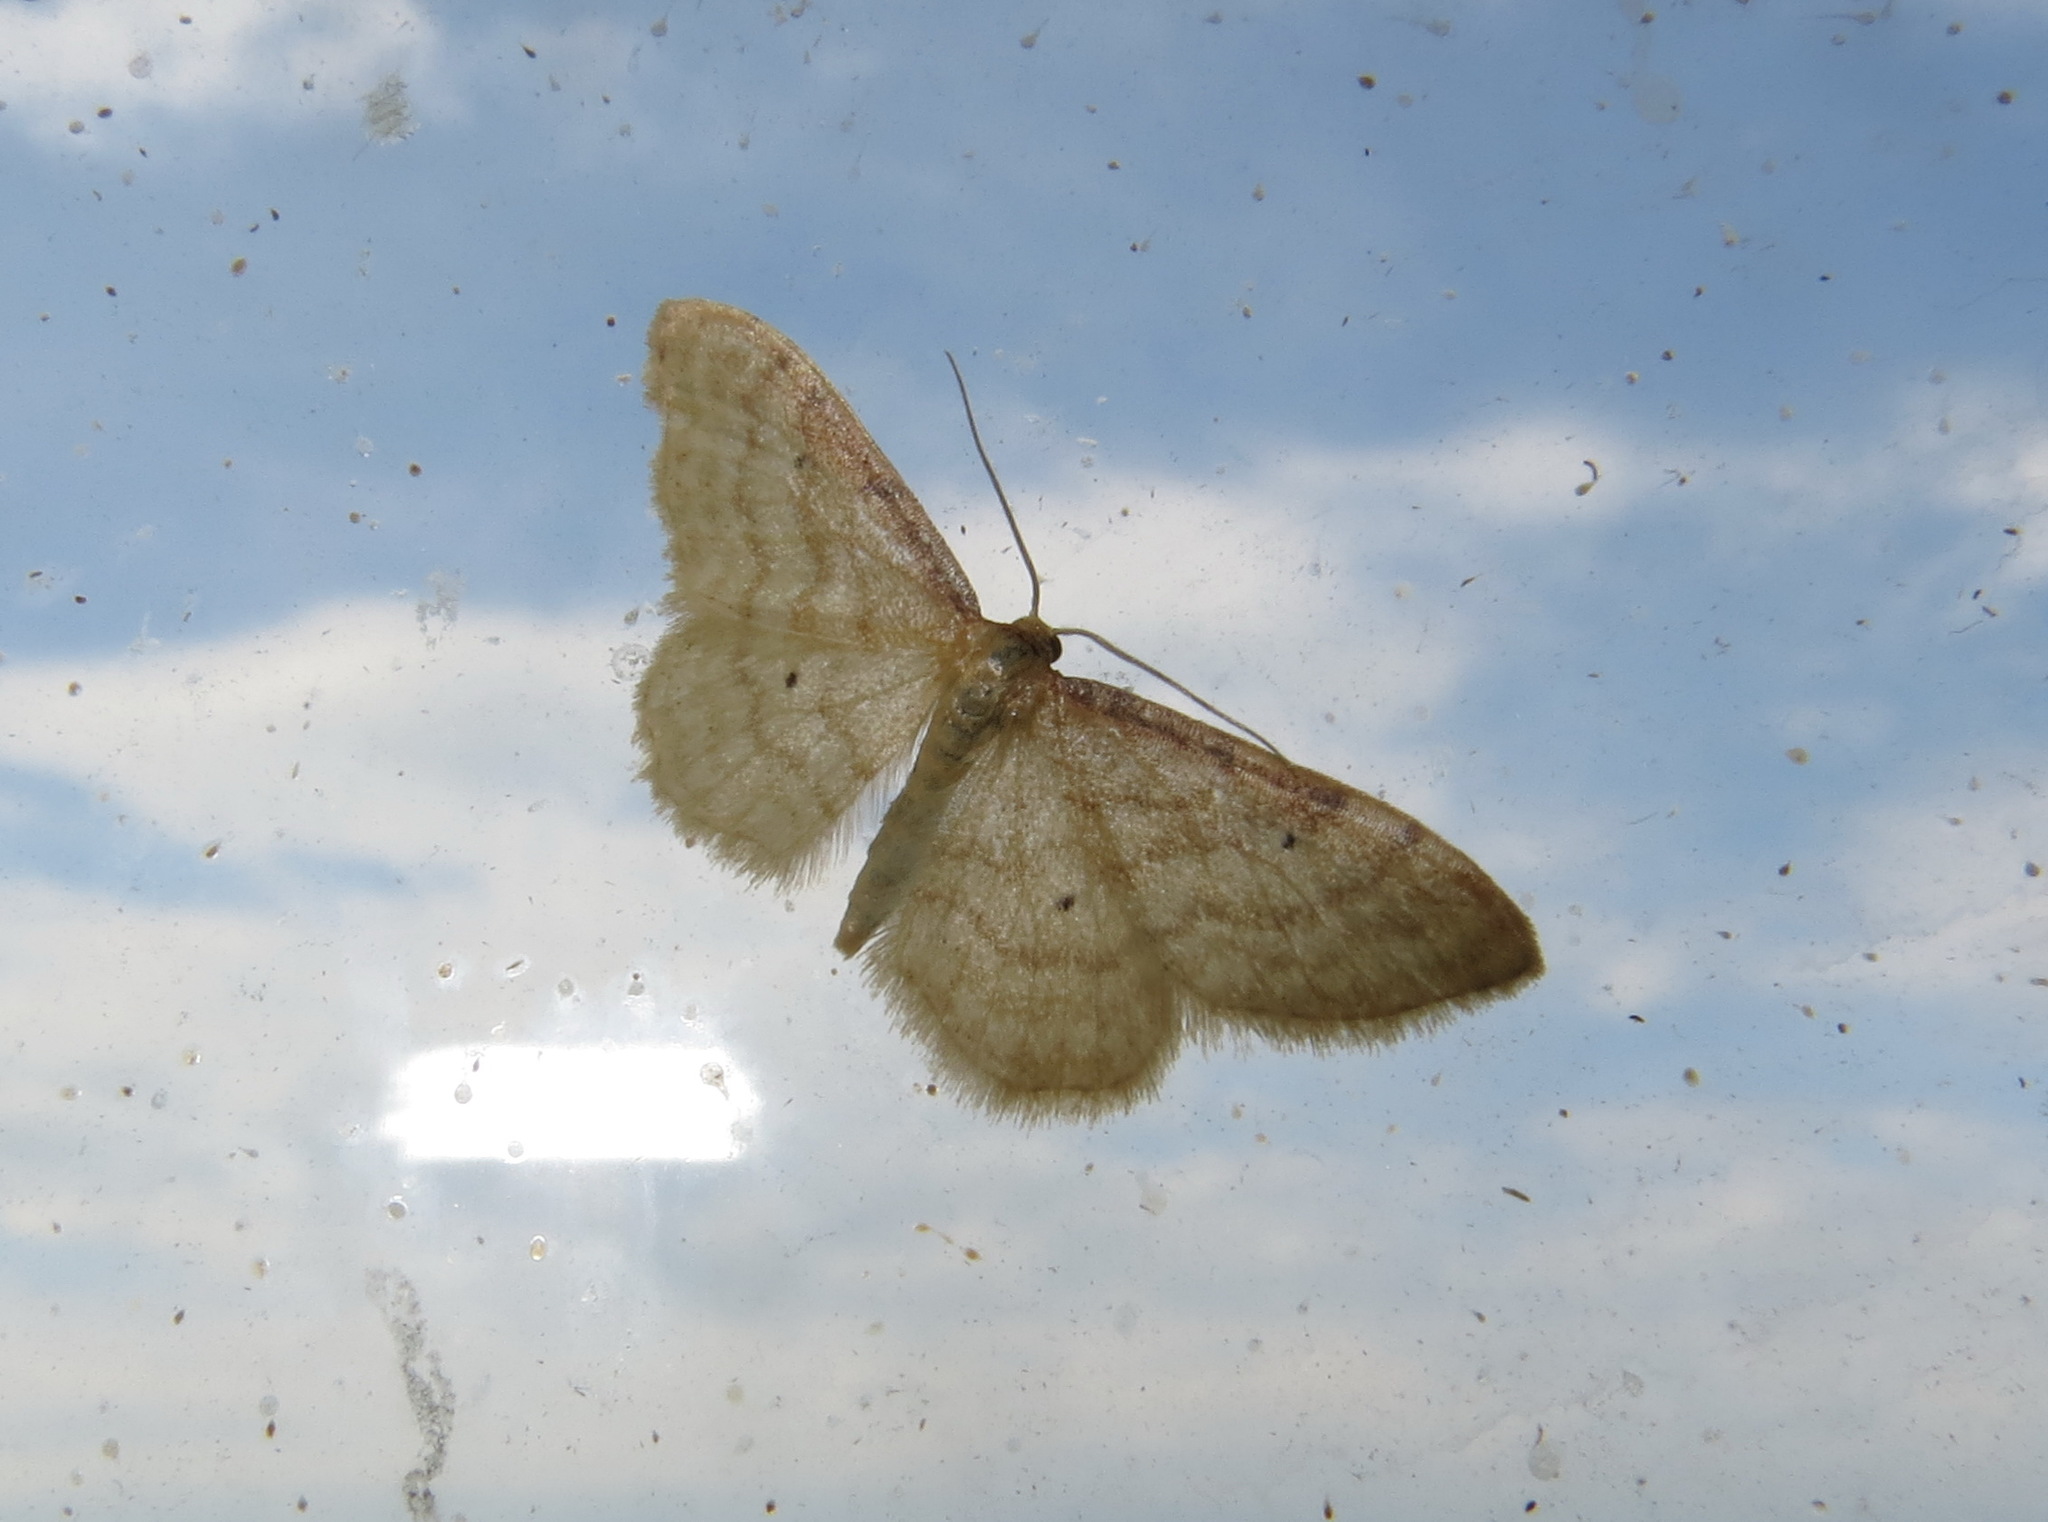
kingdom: Animalia
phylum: Arthropoda
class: Insecta
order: Lepidoptera
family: Geometridae
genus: Idaea
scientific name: Idaea humiliata
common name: Isle of wight wave
